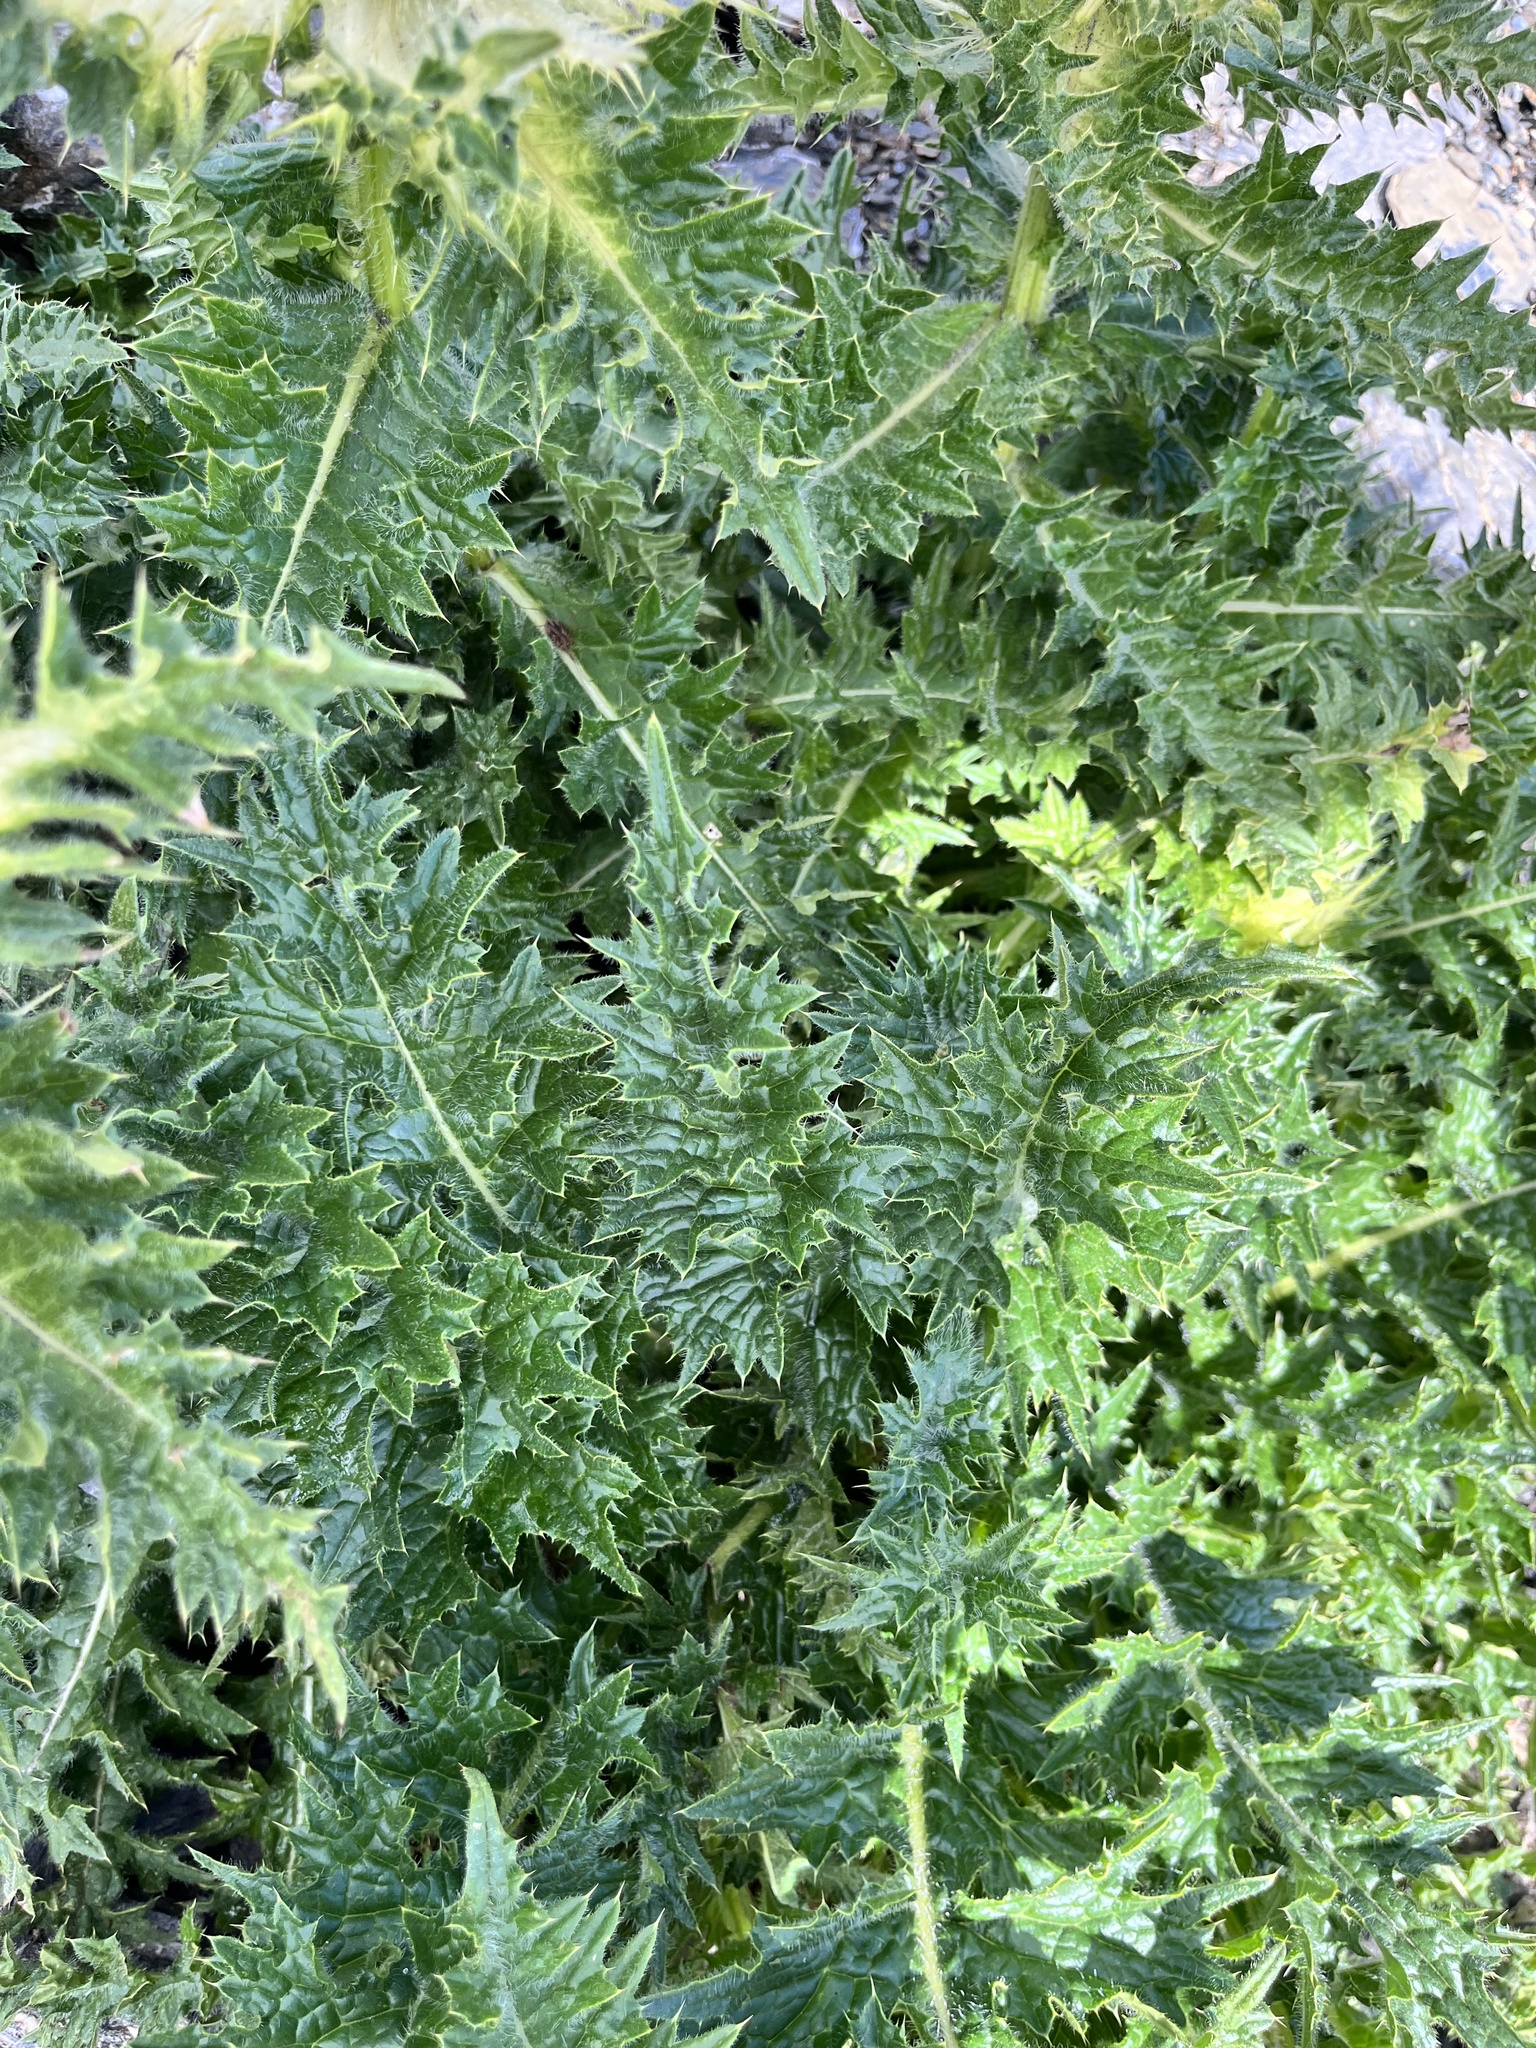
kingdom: Plantae
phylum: Tracheophyta
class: Magnoliopsida
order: Asterales
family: Asteraceae
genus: Cirsium
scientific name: Cirsium spinosissimum
